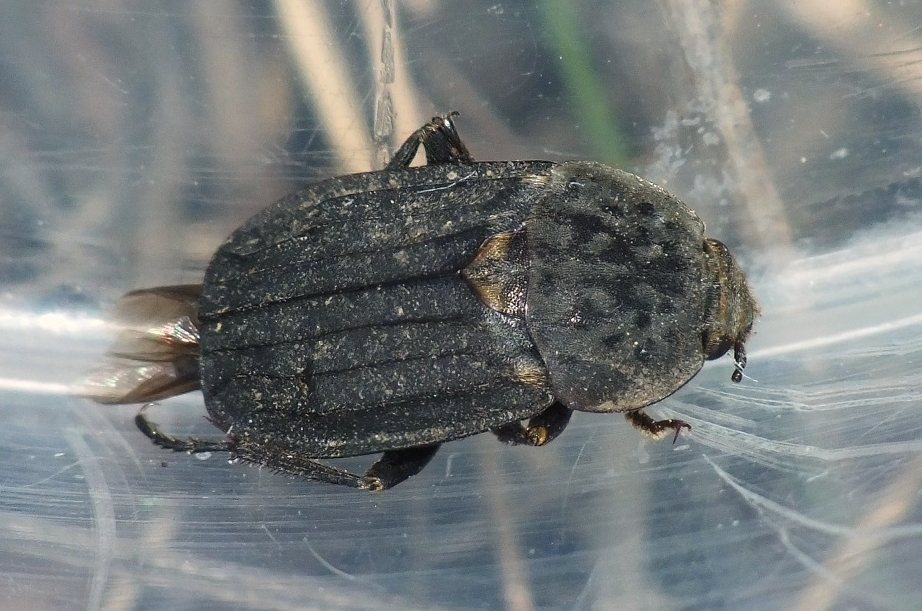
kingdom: Animalia
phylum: Arthropoda
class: Insecta
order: Coleoptera
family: Staphylinidae
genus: Thanatophilus
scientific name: Thanatophilus sinuatus
